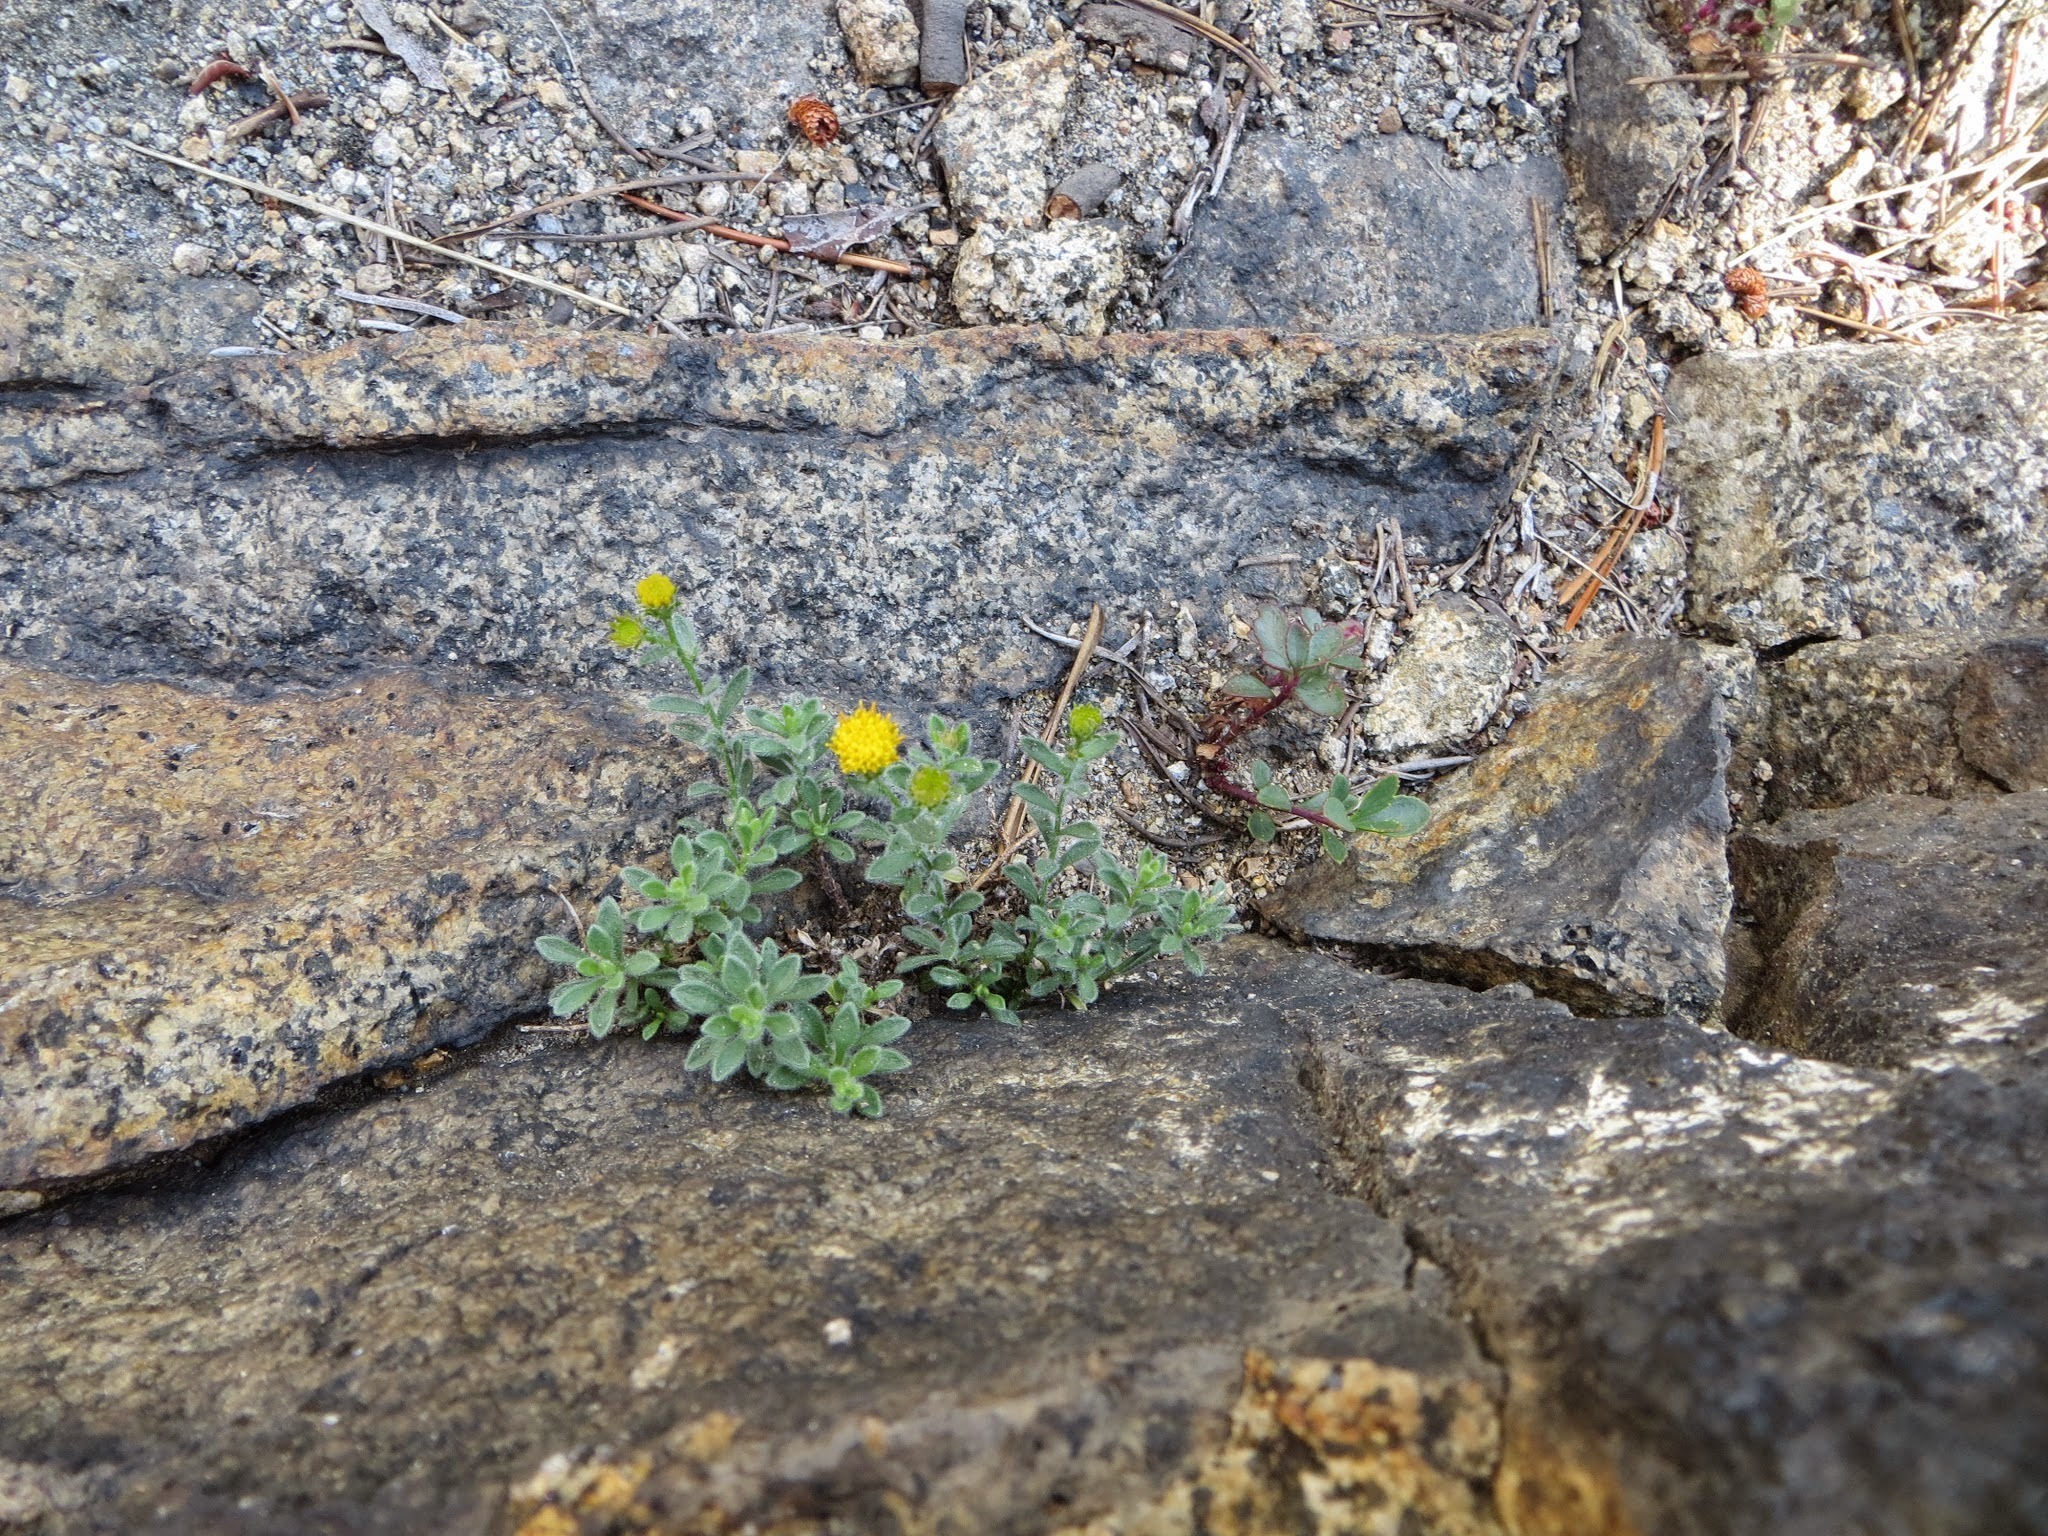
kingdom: Plantae
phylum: Tracheophyta
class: Magnoliopsida
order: Asterales
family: Asteraceae
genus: Erigeron
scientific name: Erigeron miser
